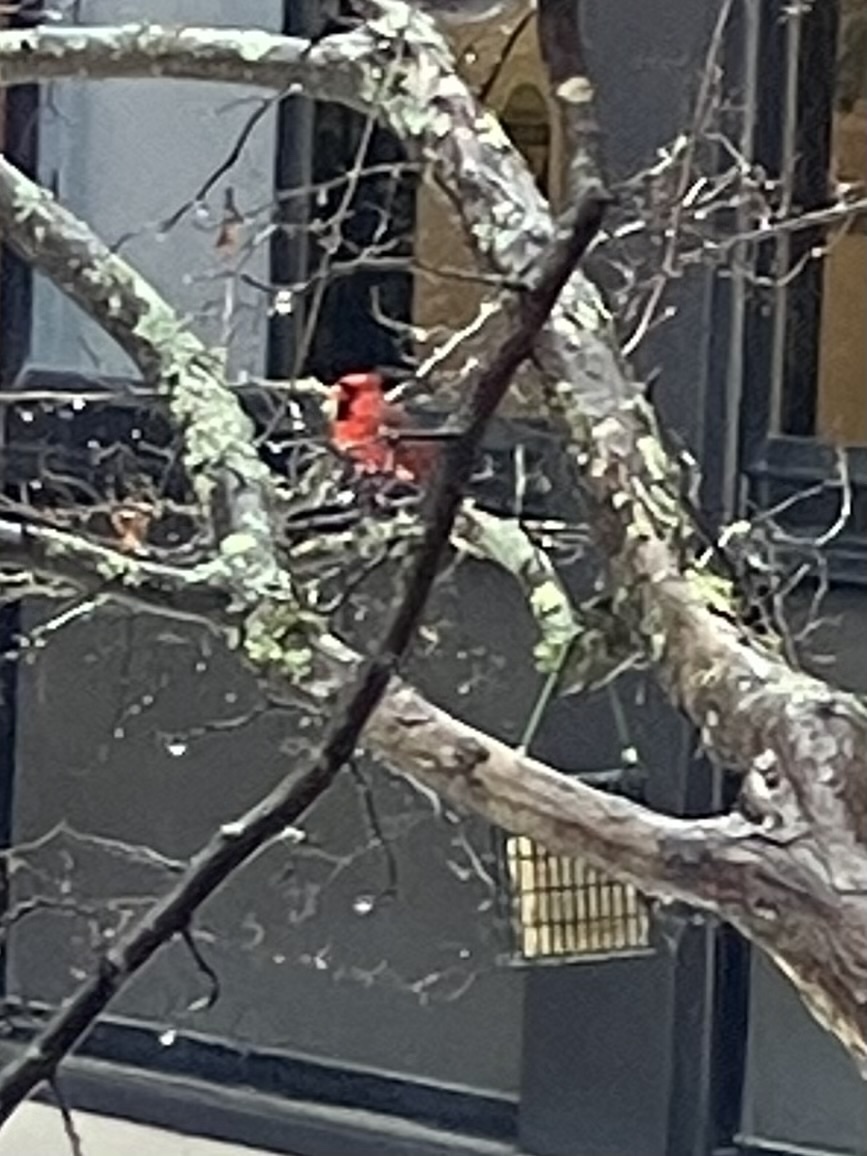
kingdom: Animalia
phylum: Chordata
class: Aves
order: Passeriformes
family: Cardinalidae
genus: Cardinalis
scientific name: Cardinalis cardinalis
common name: Northern cardinal
